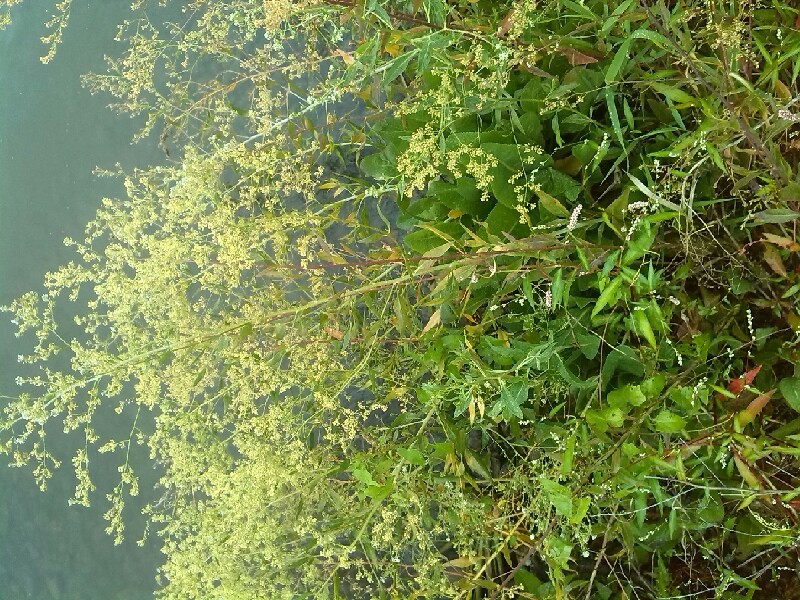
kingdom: Plantae
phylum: Tracheophyta
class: Magnoliopsida
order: Brassicales
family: Brassicaceae
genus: Lepidium
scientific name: Lepidium latifolium
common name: Dittander
